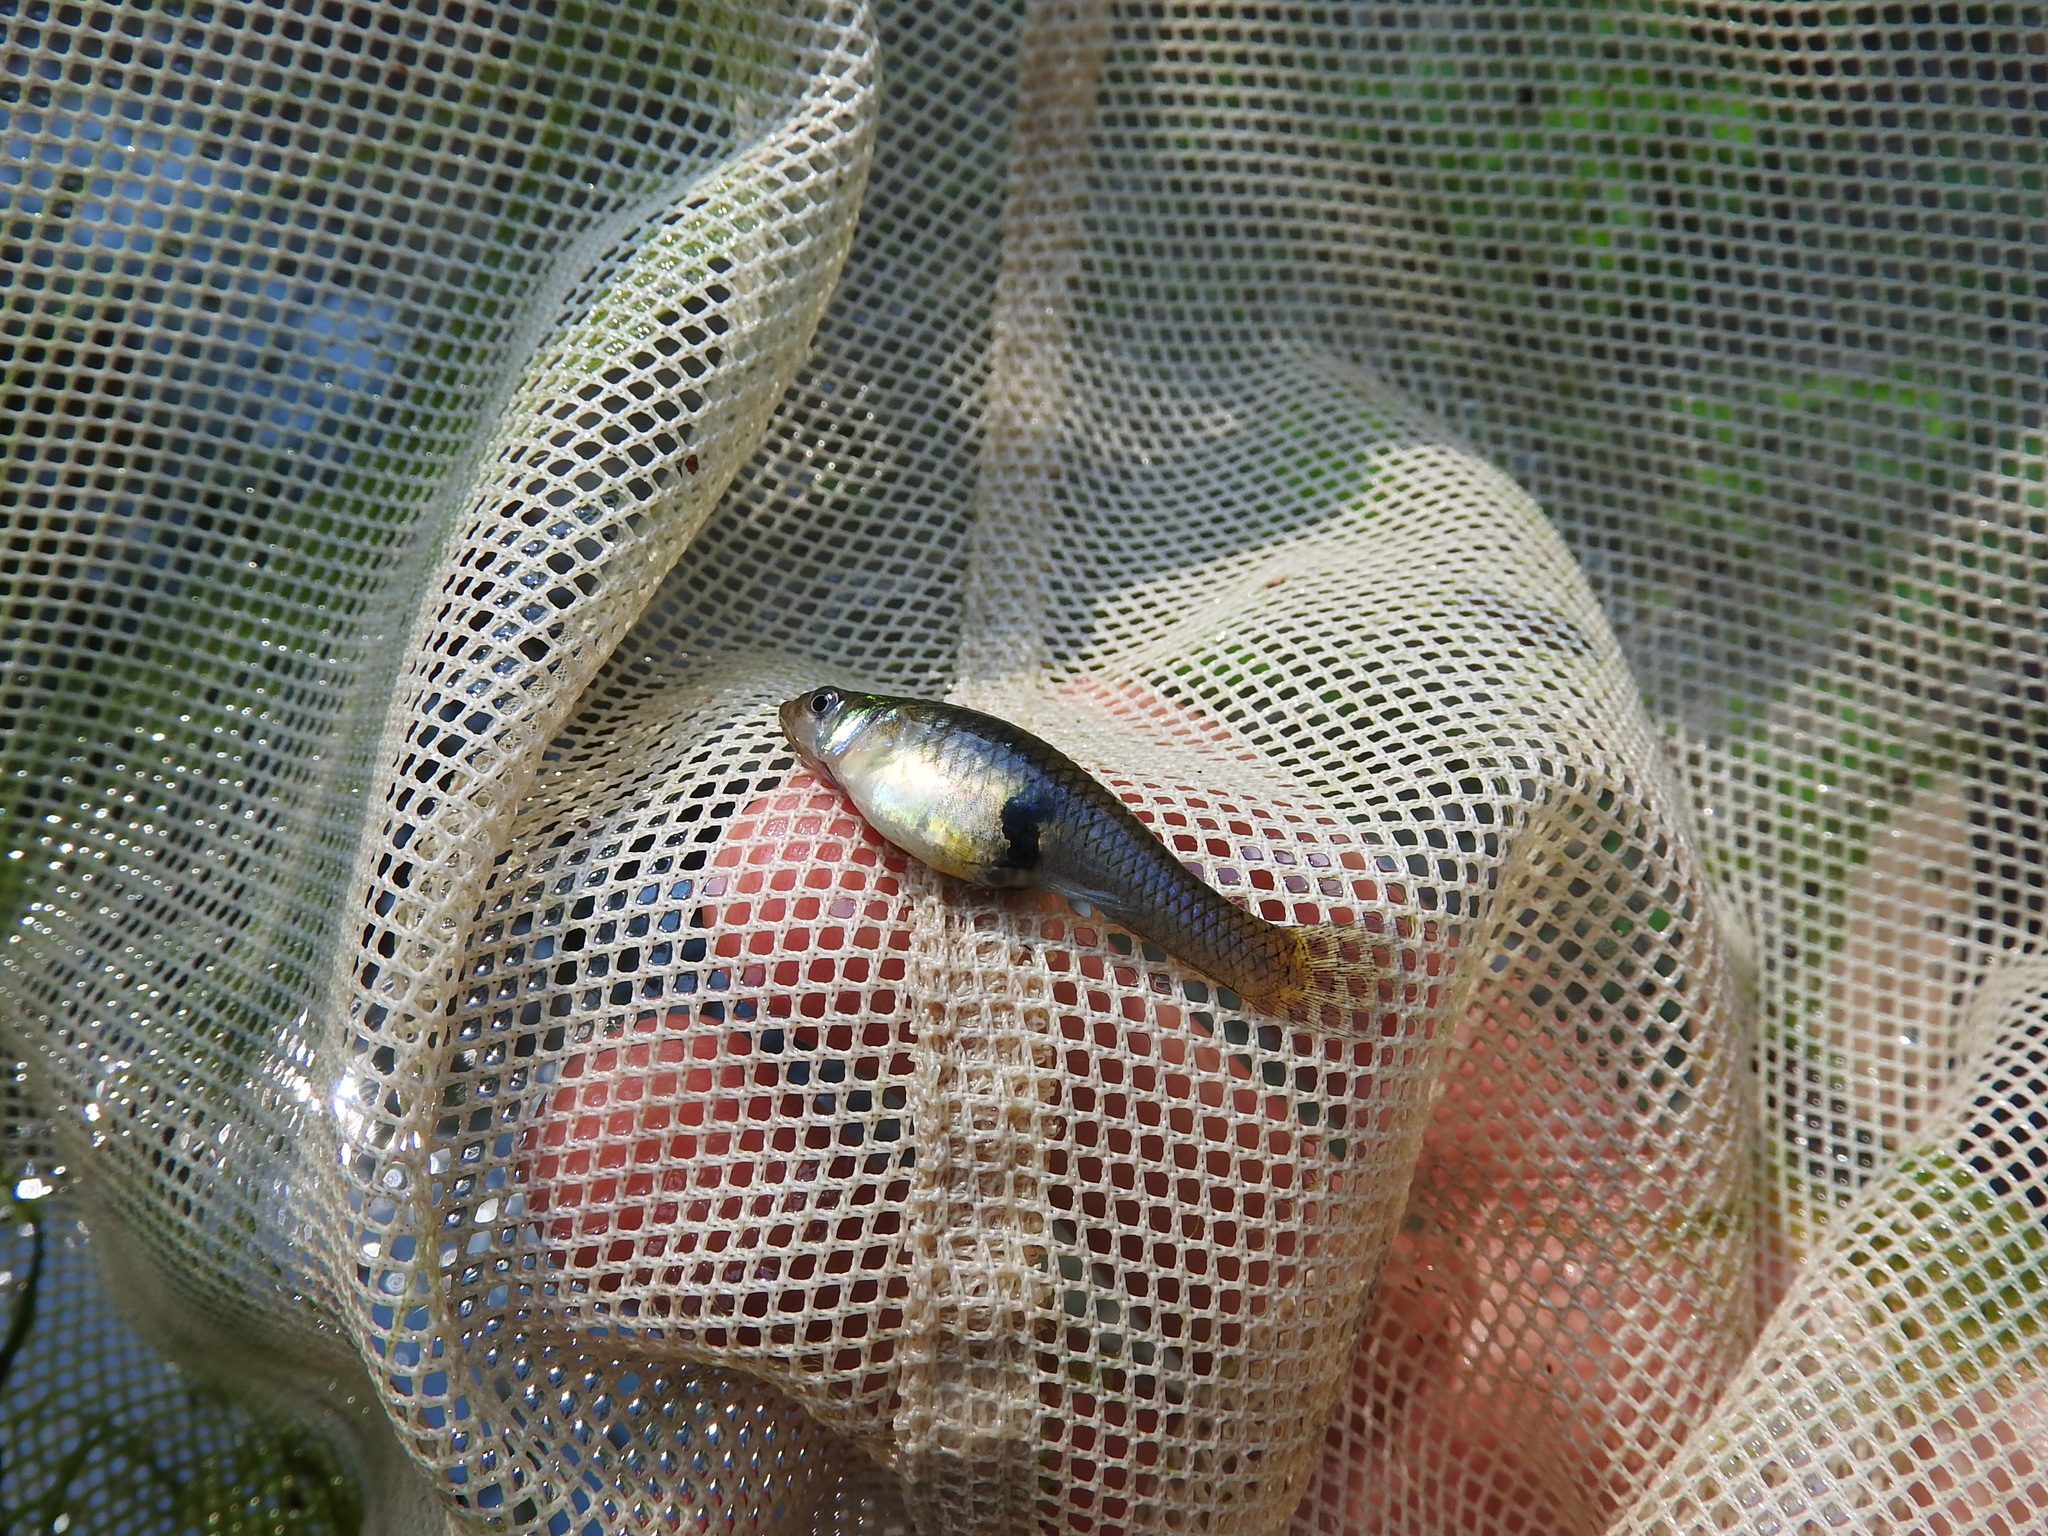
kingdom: Animalia
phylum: Chordata
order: Cyprinodontiformes
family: Poeciliidae
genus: Gambusia
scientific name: Gambusia holbrooki
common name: Eastern mosquitofish
